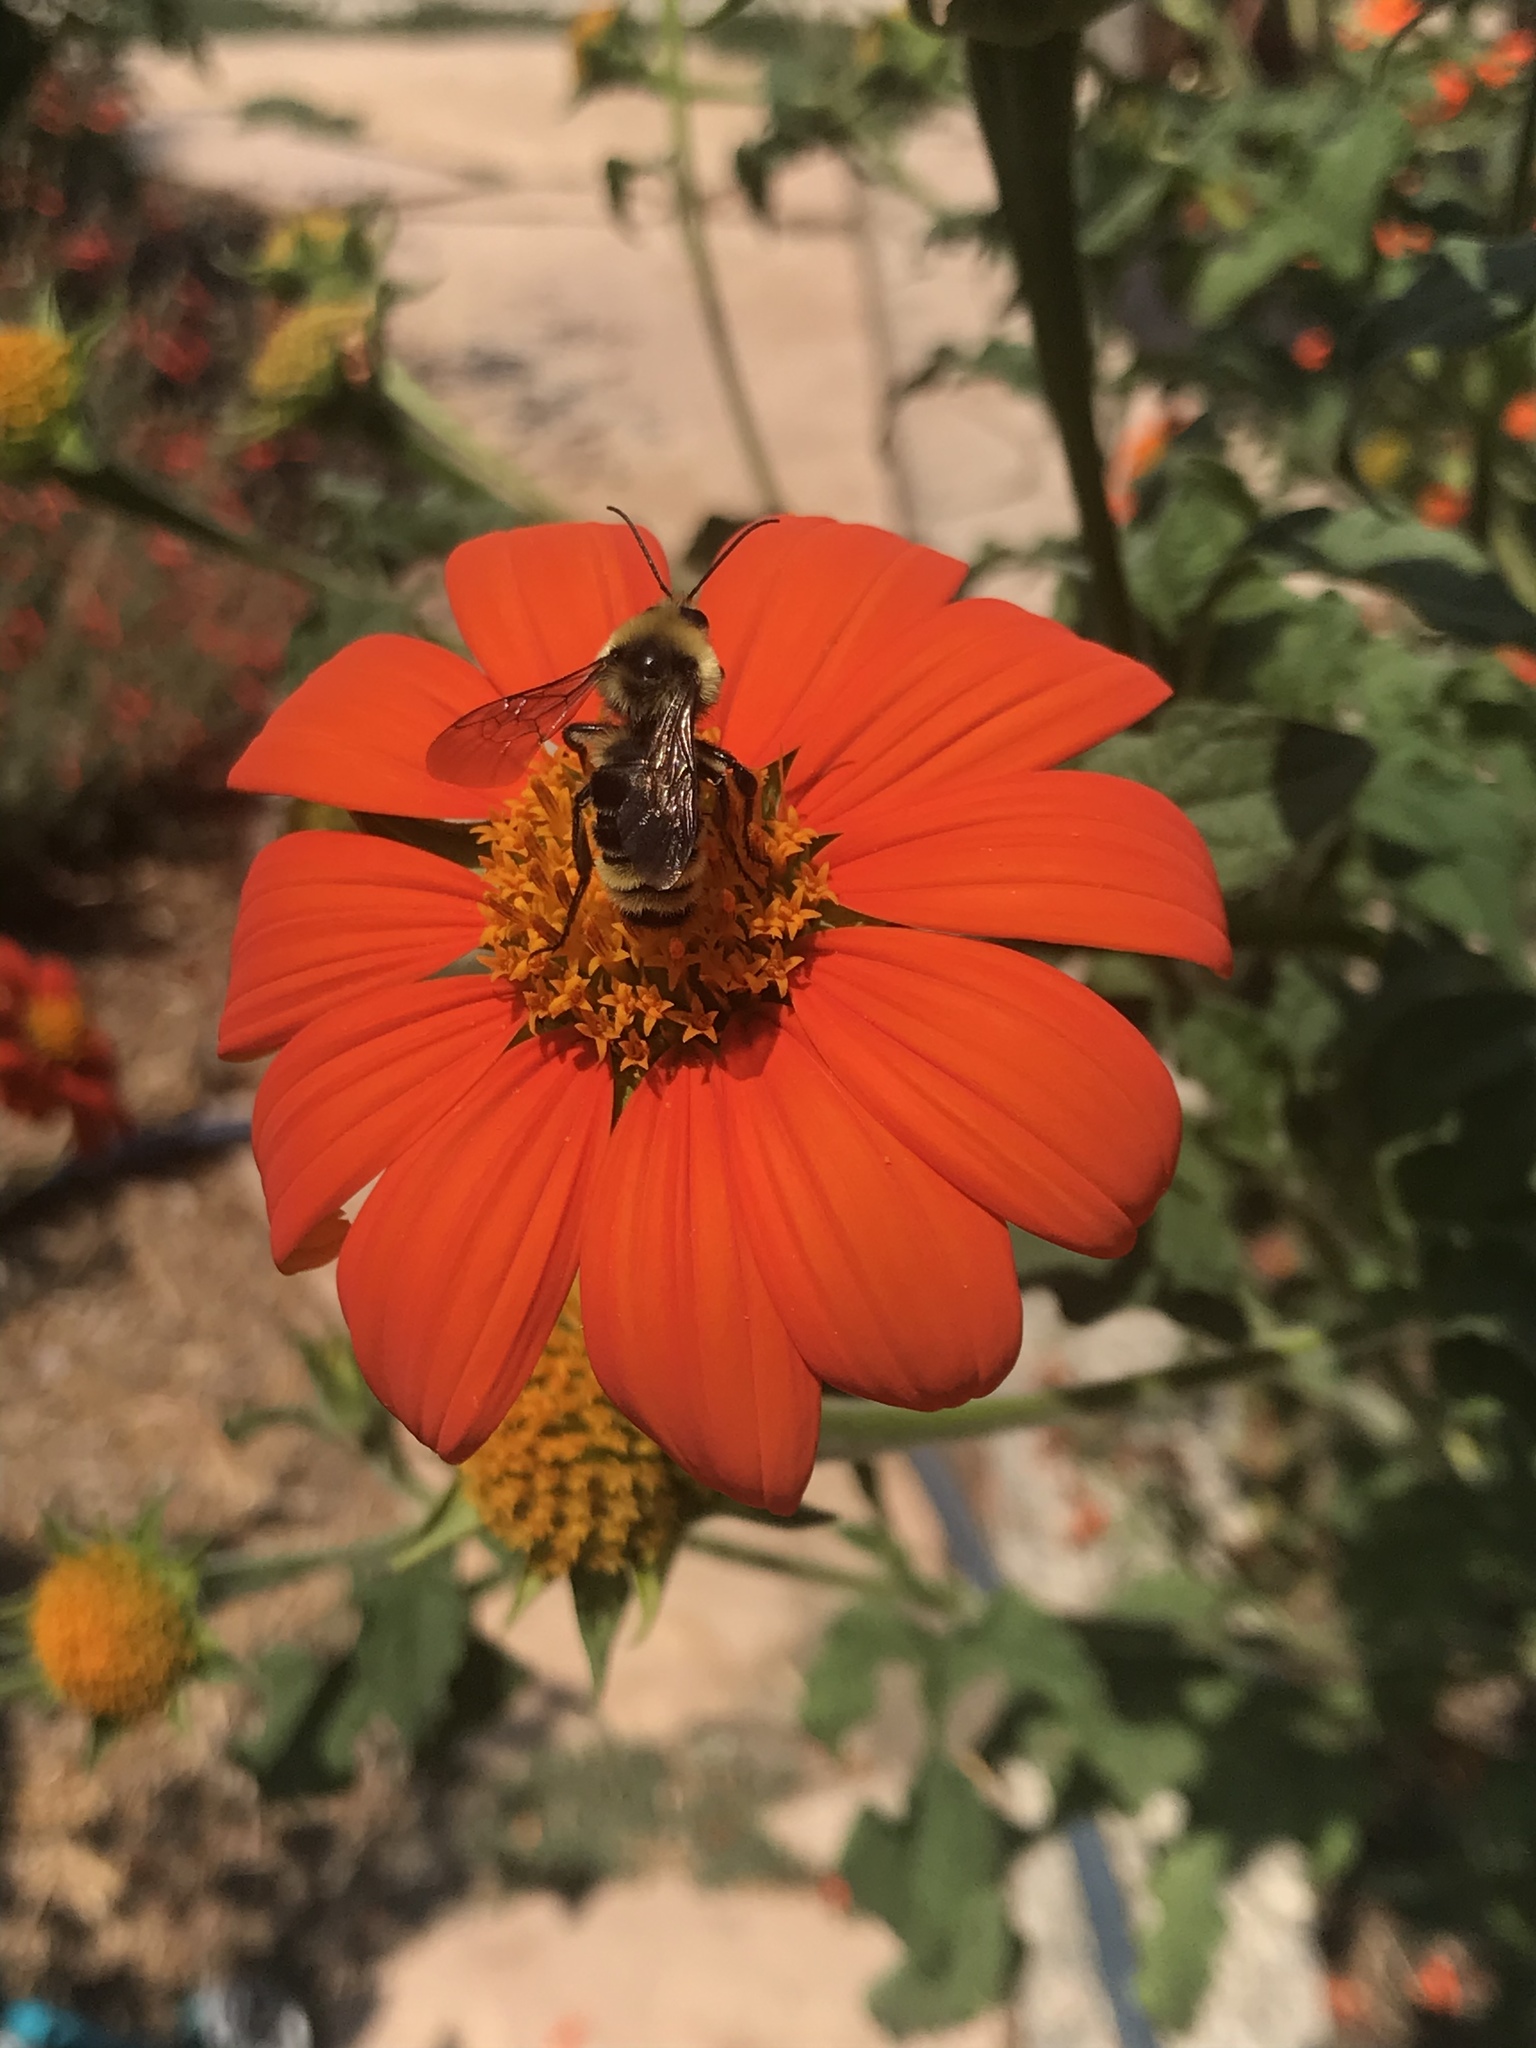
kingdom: Animalia
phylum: Arthropoda
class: Insecta
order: Hymenoptera
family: Apidae
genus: Bombus
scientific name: Bombus californicus
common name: California bumble bee
